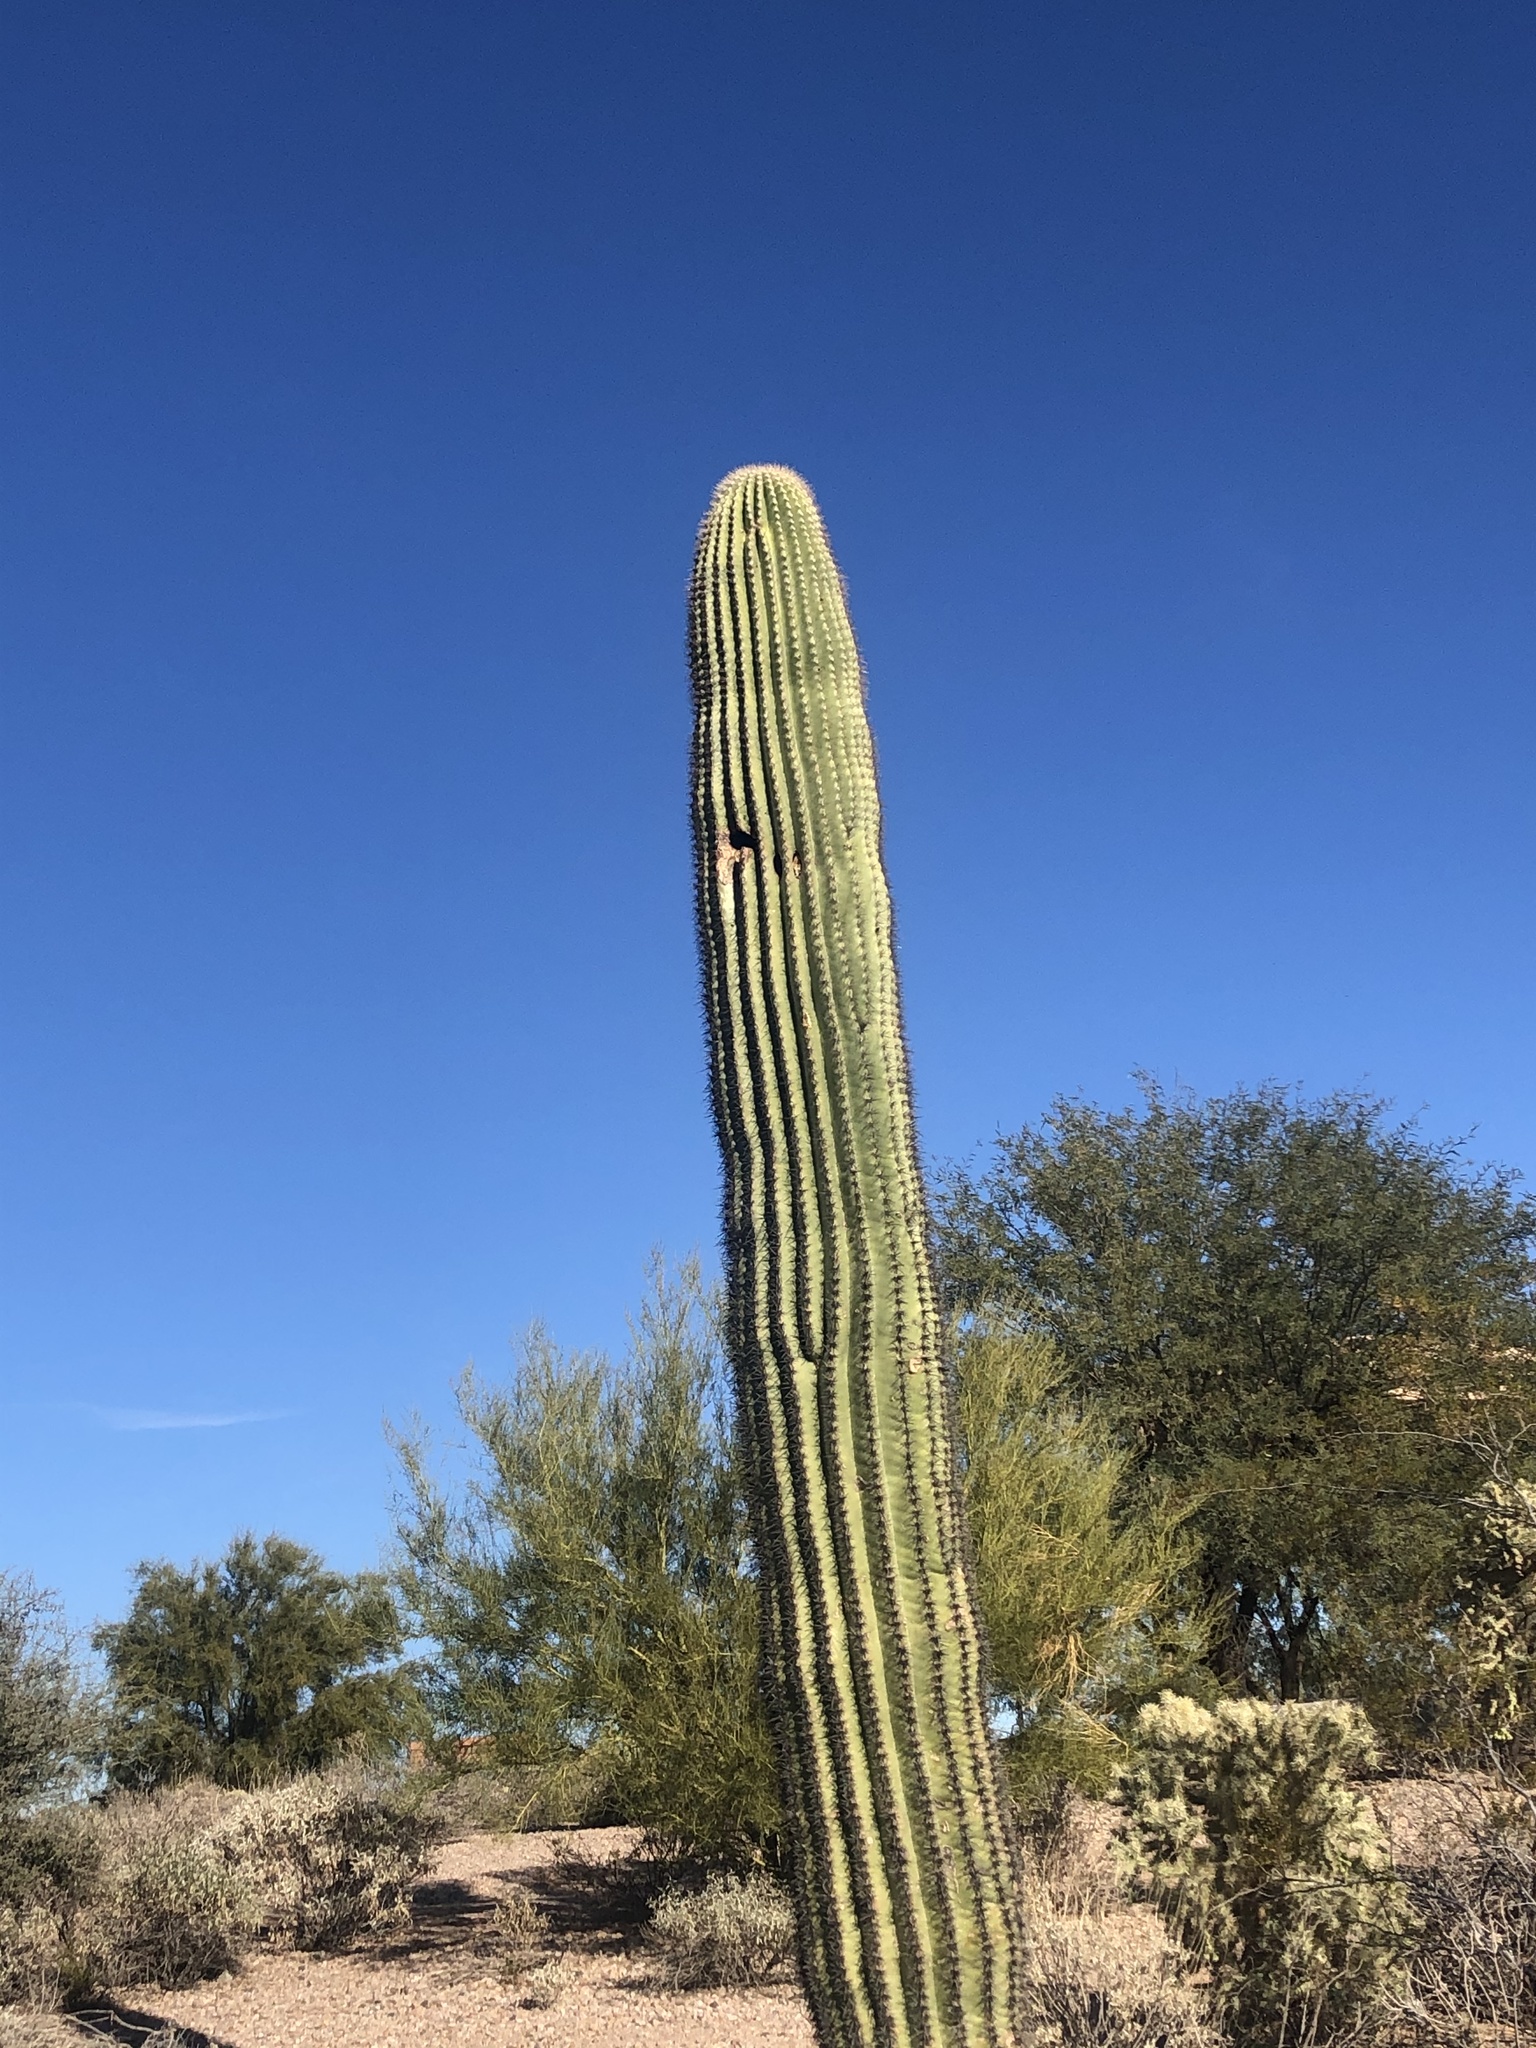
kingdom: Plantae
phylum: Tracheophyta
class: Magnoliopsida
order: Caryophyllales
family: Cactaceae
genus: Carnegiea
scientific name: Carnegiea gigantea
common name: Saguaro
